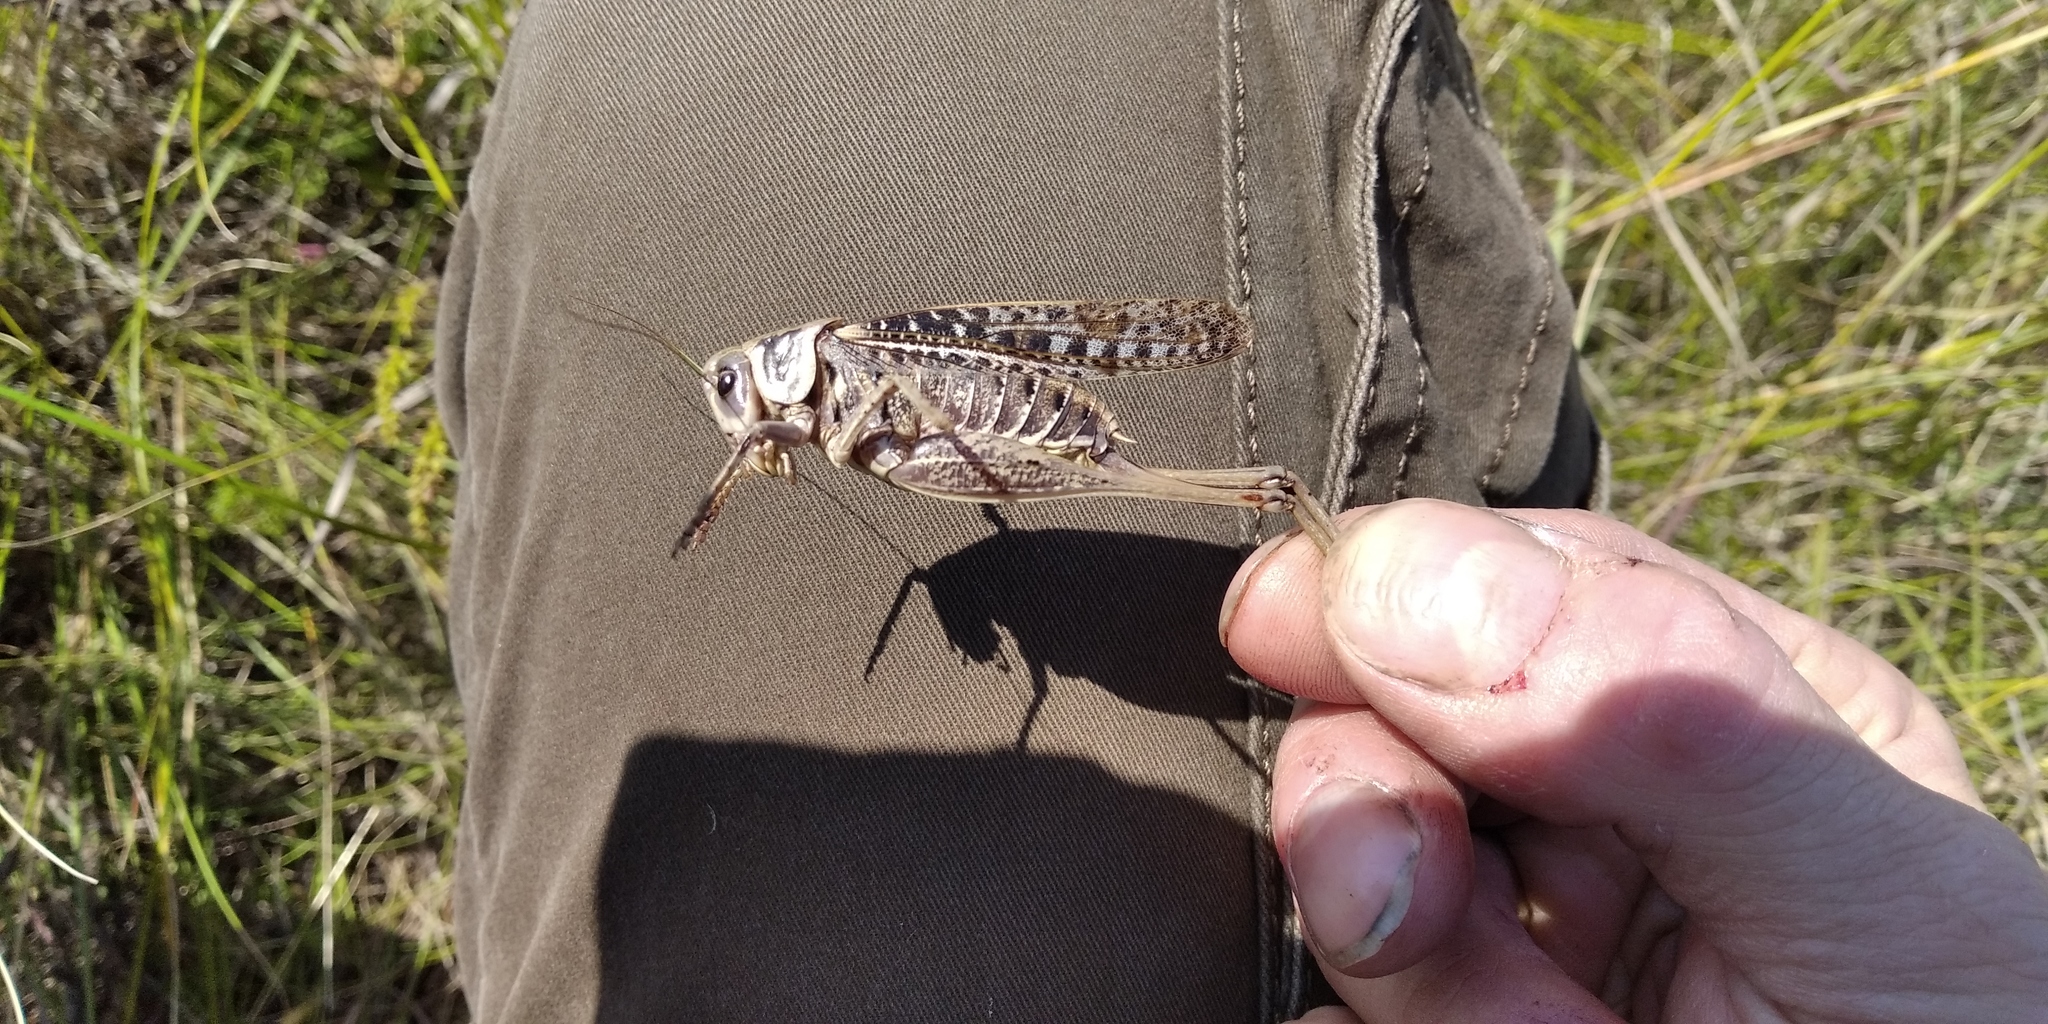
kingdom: Animalia
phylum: Arthropoda
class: Insecta
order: Orthoptera
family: Tettigoniidae
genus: Decticus
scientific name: Decticus verrucivorus
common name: Wart-biter
